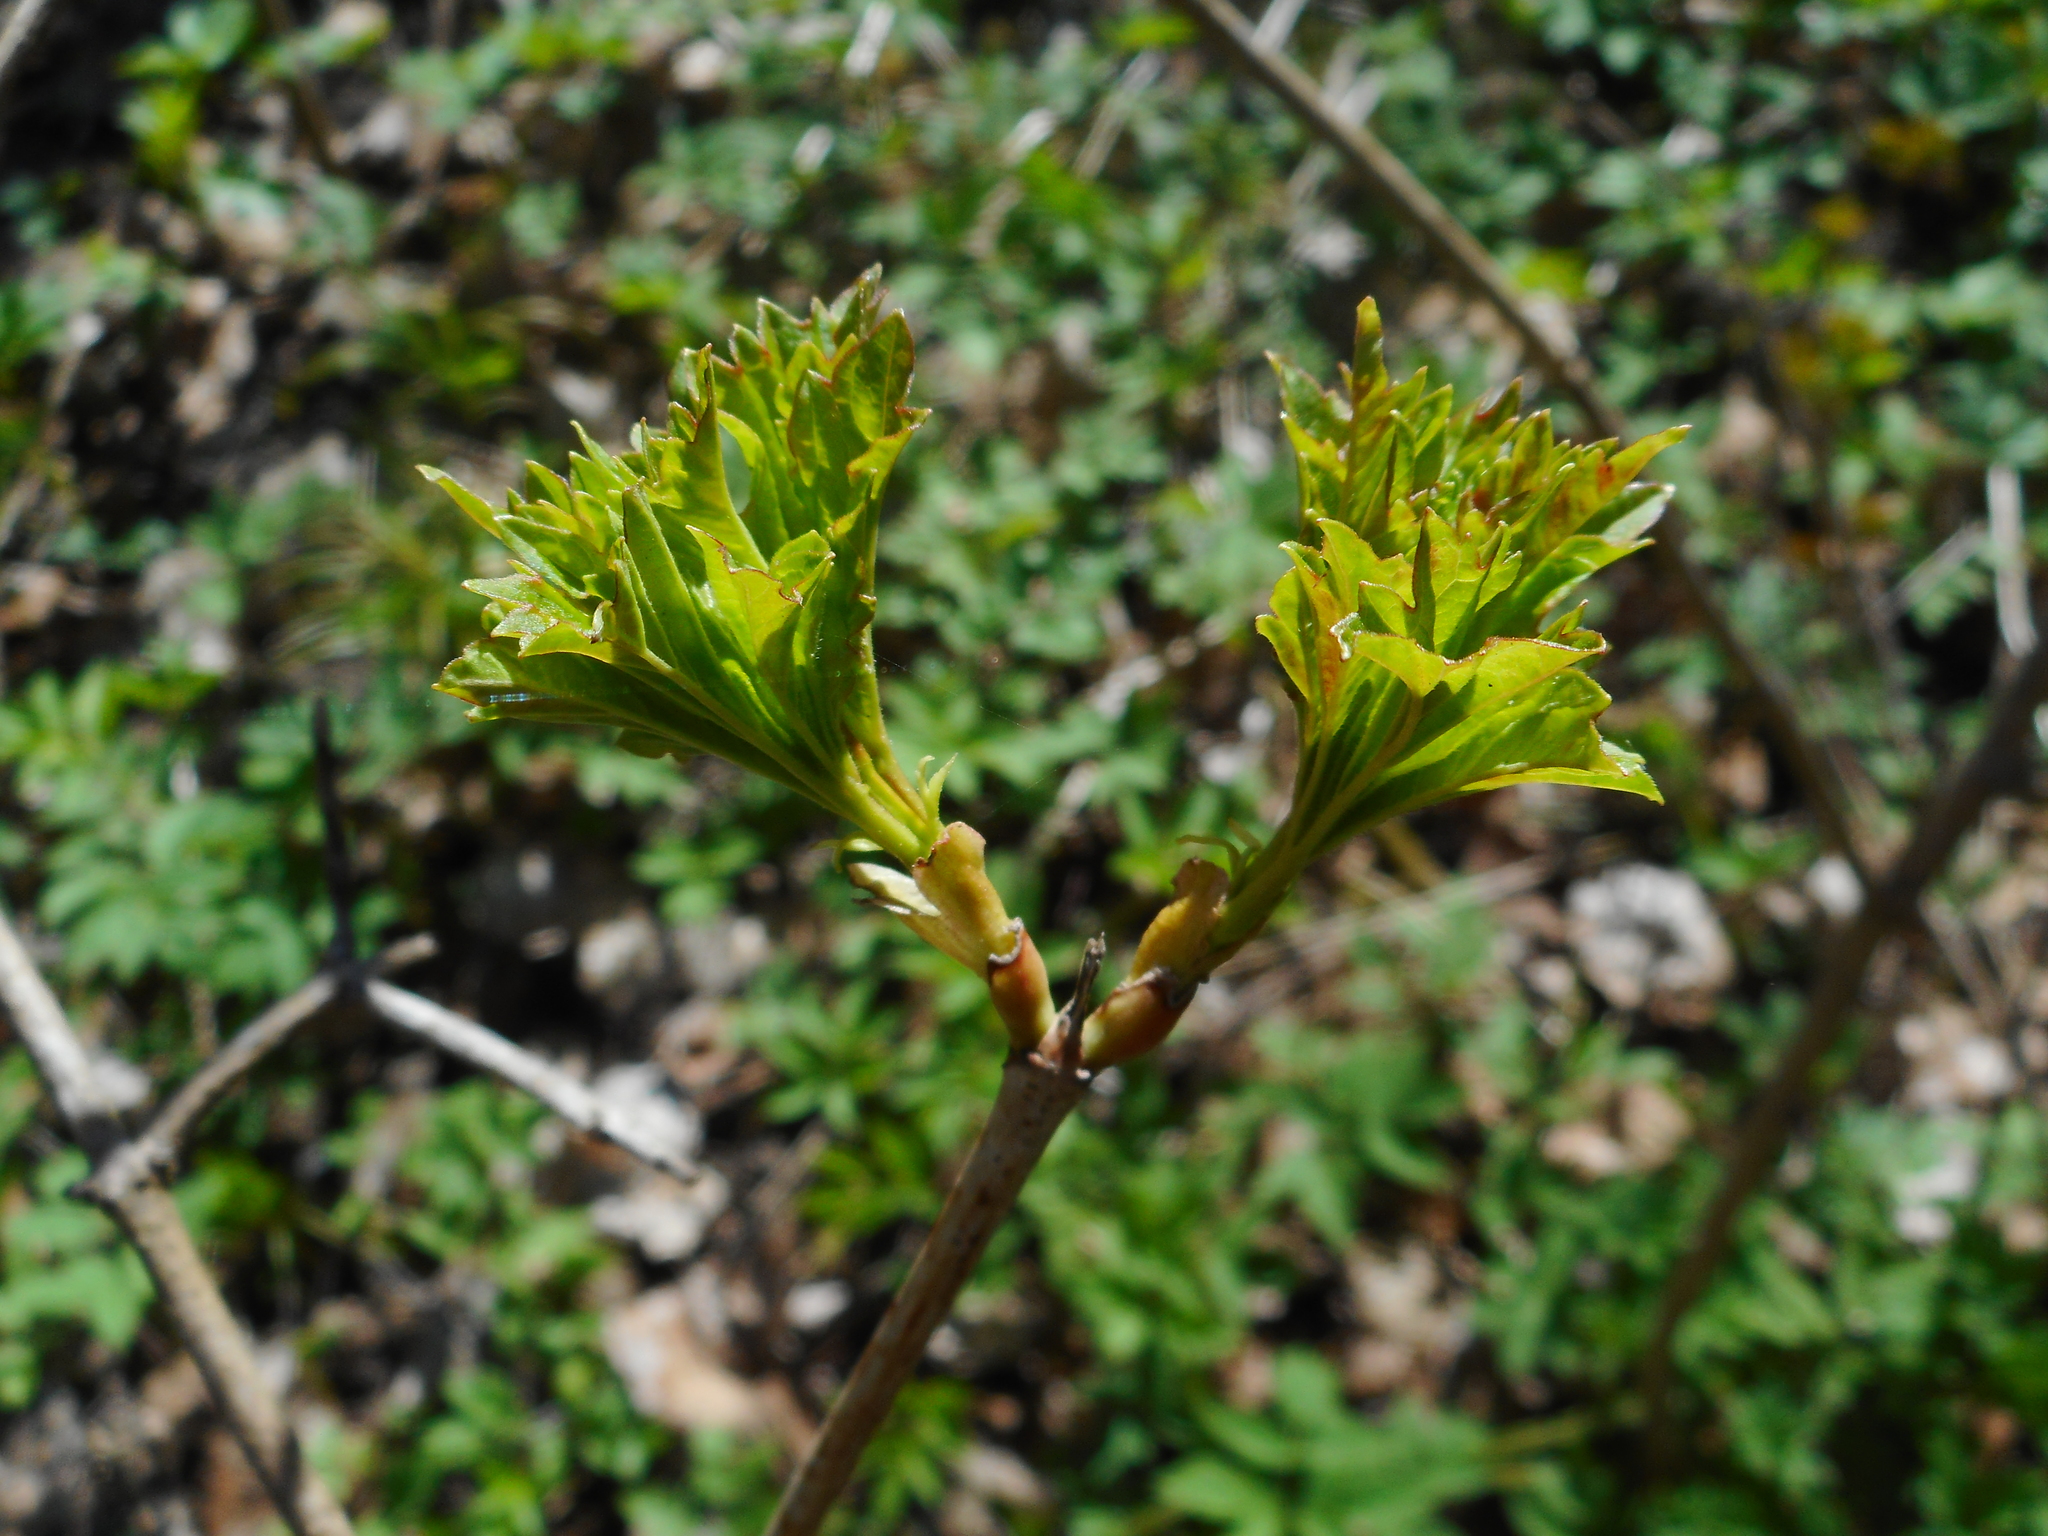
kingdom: Plantae
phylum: Tracheophyta
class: Magnoliopsida
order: Dipsacales
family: Viburnaceae
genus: Viburnum
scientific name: Viburnum opulus
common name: Guelder-rose
